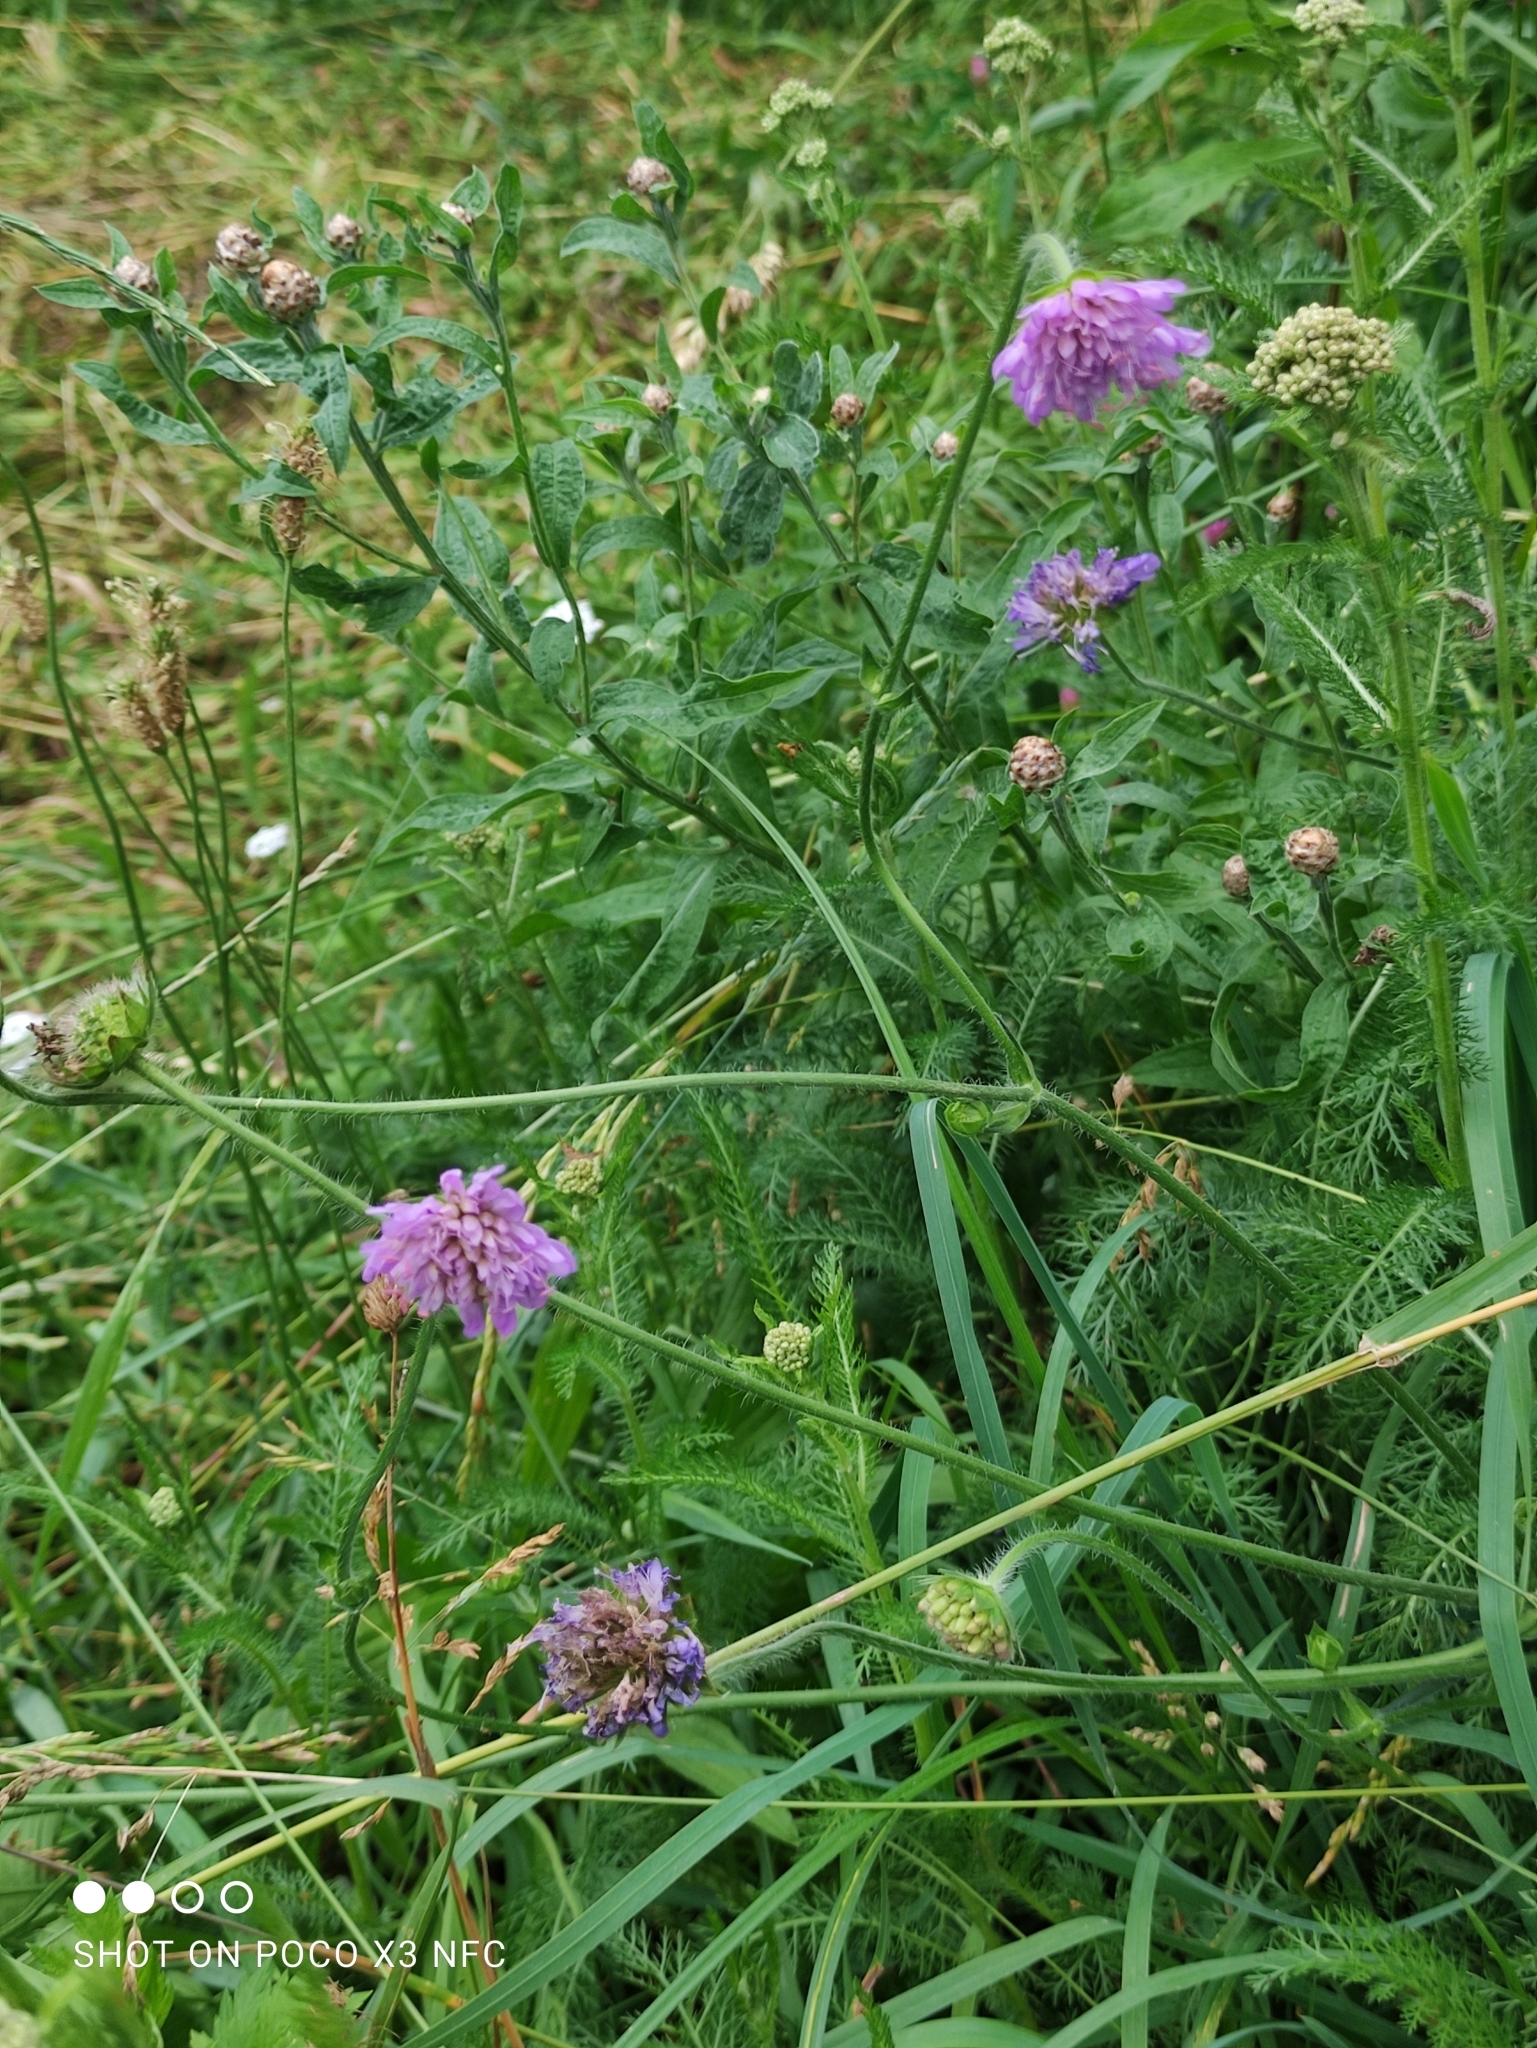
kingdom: Plantae
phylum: Tracheophyta
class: Magnoliopsida
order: Dipsacales
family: Caprifoliaceae
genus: Knautia
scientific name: Knautia arvensis
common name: Field scabiosa
